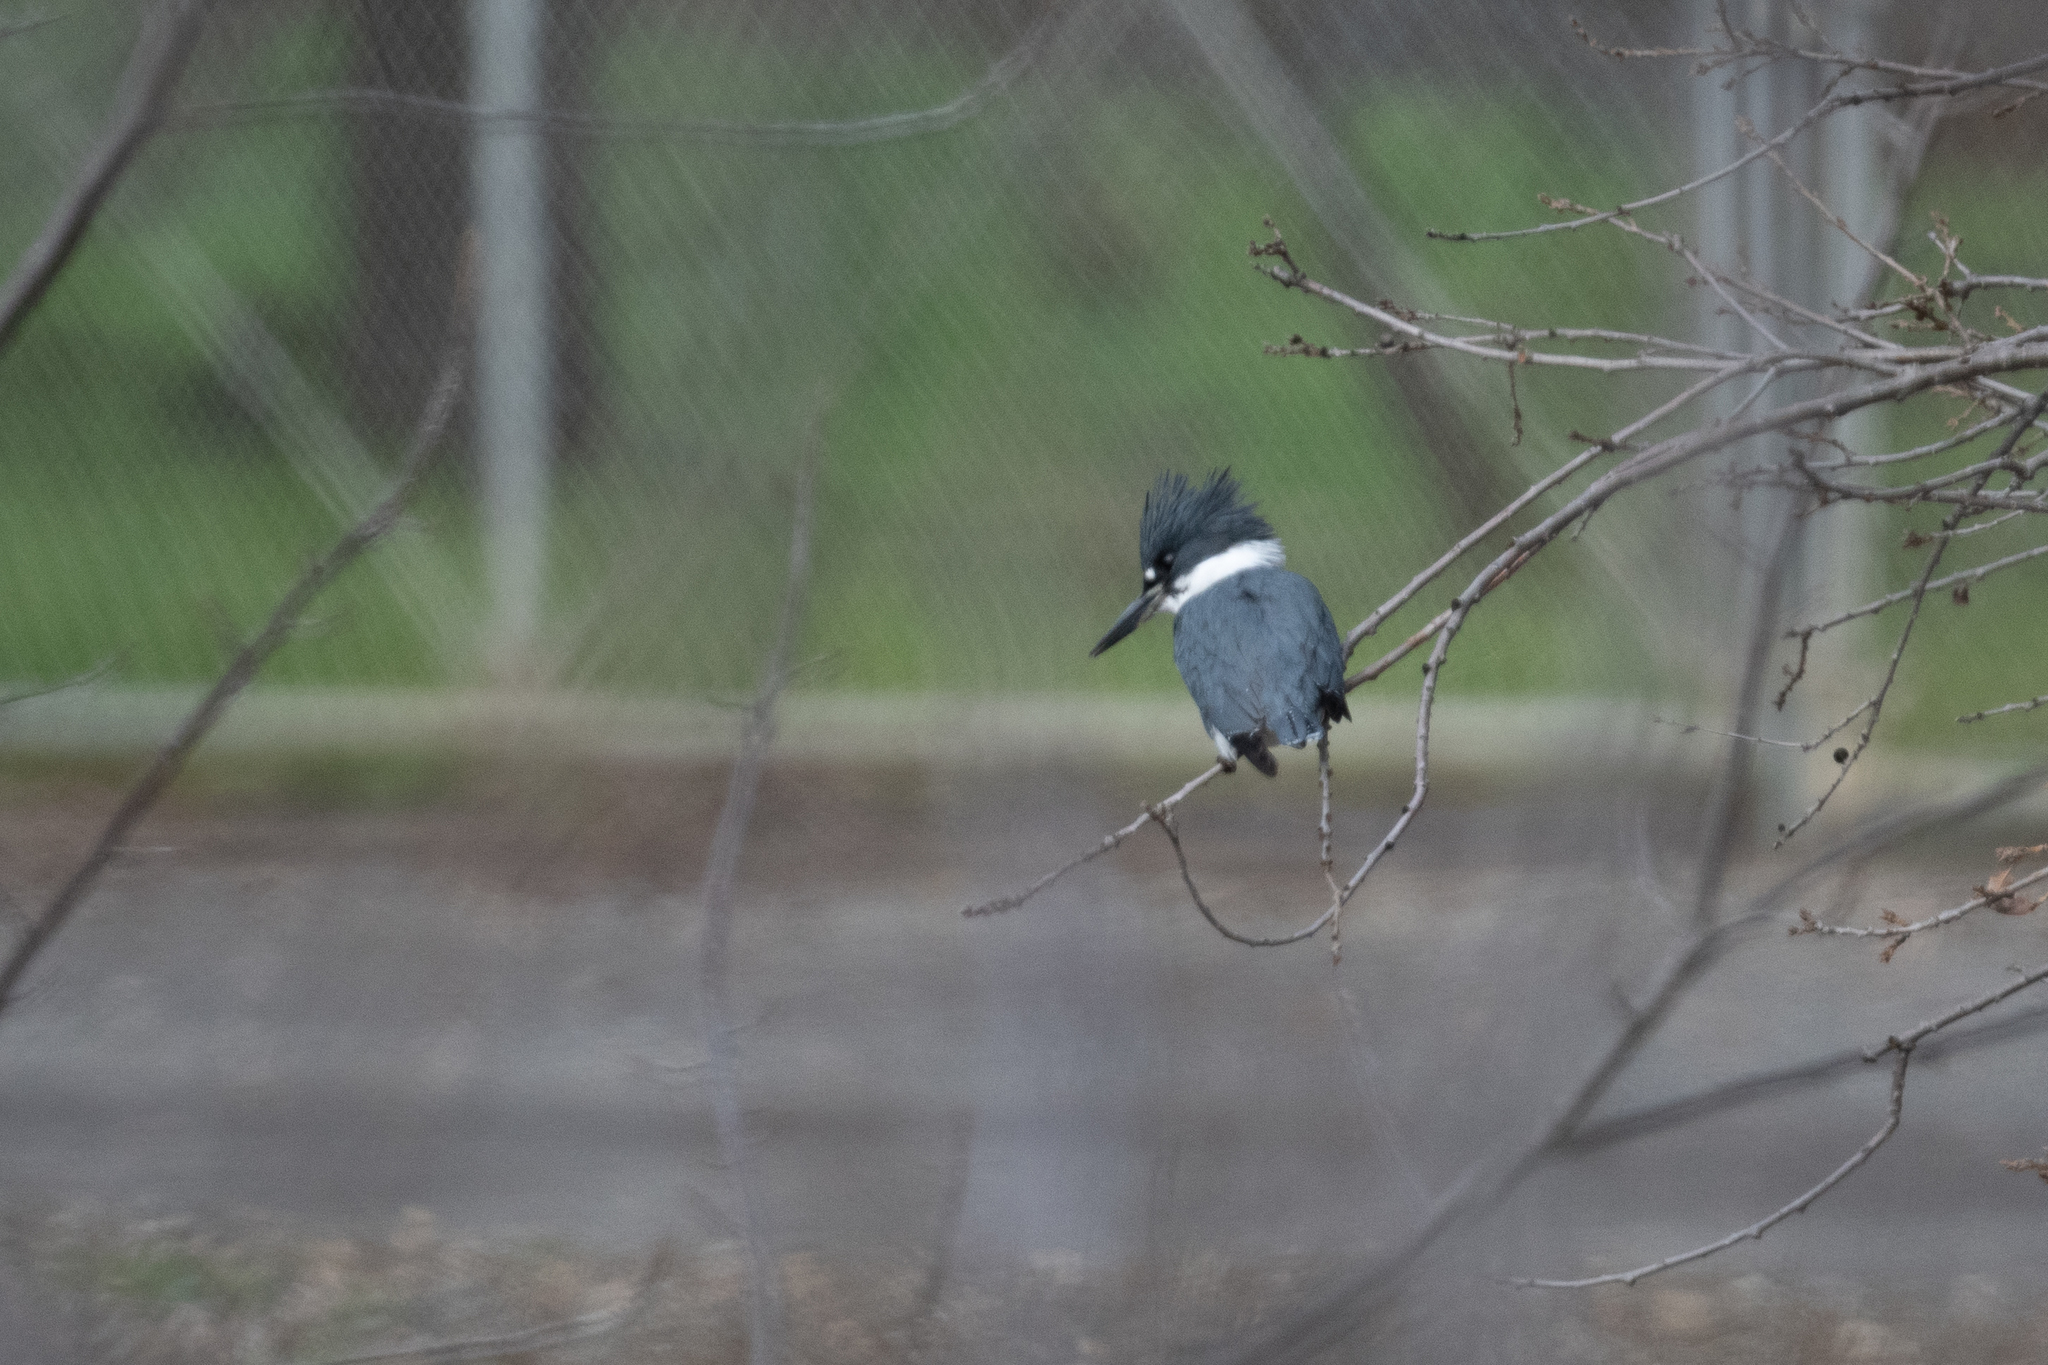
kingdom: Animalia
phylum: Chordata
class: Aves
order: Coraciiformes
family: Alcedinidae
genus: Megaceryle
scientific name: Megaceryle alcyon
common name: Belted kingfisher
